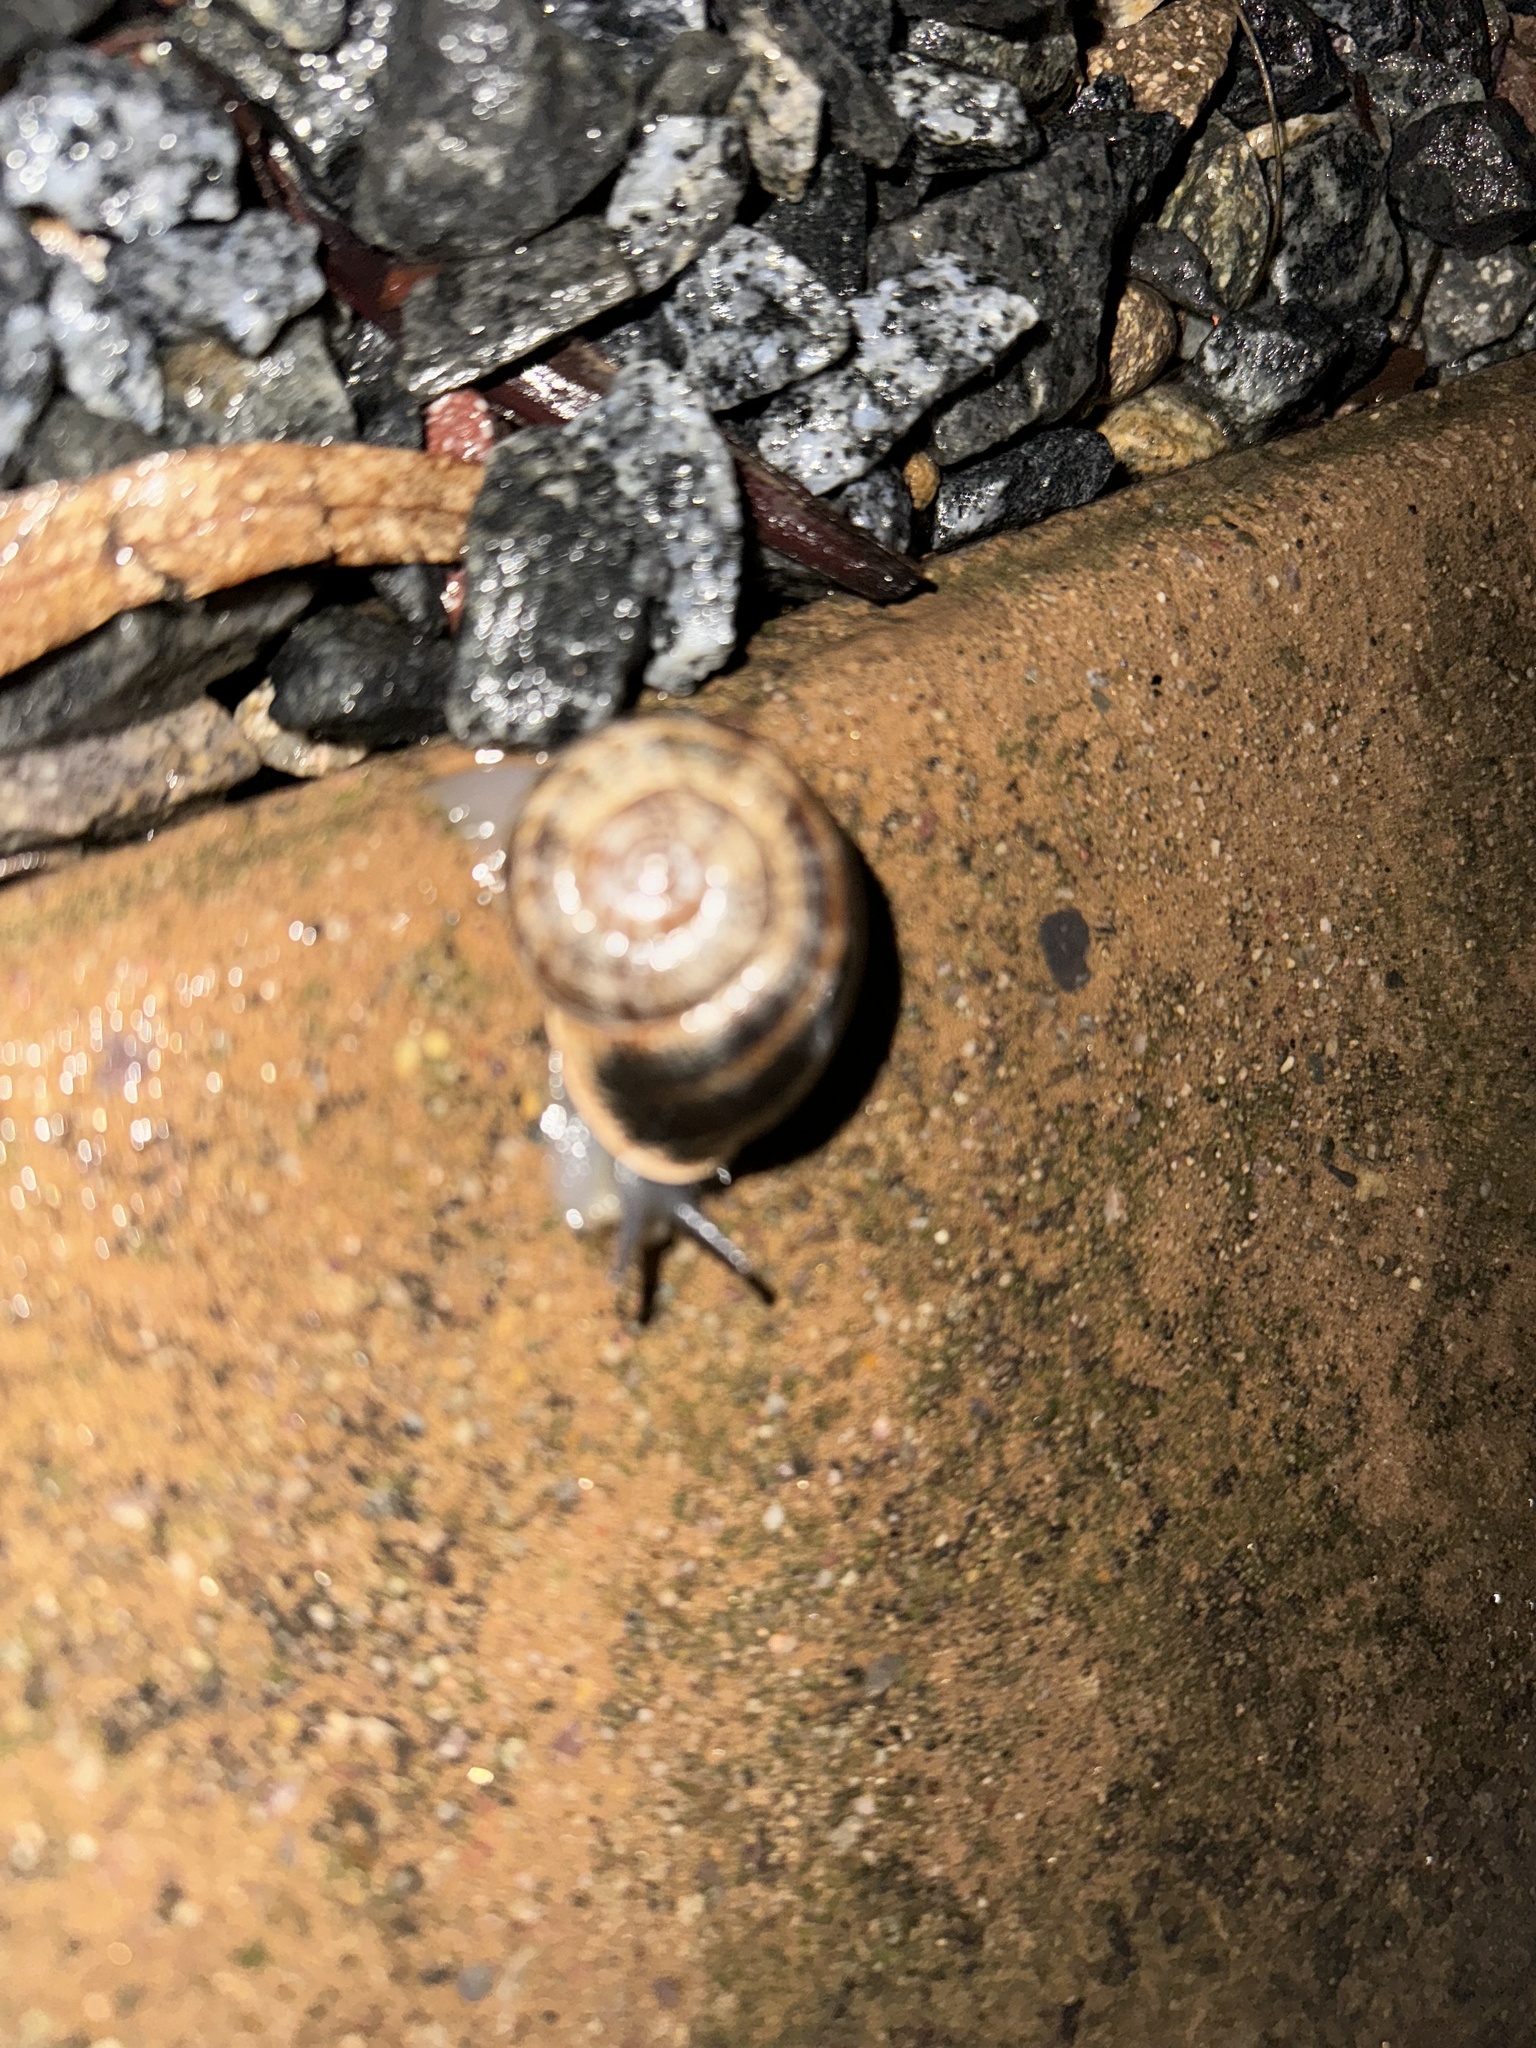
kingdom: Animalia
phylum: Mollusca
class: Gastropoda
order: Stylommatophora
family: Helicidae
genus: Otala
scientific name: Otala lactea
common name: Milk snail
